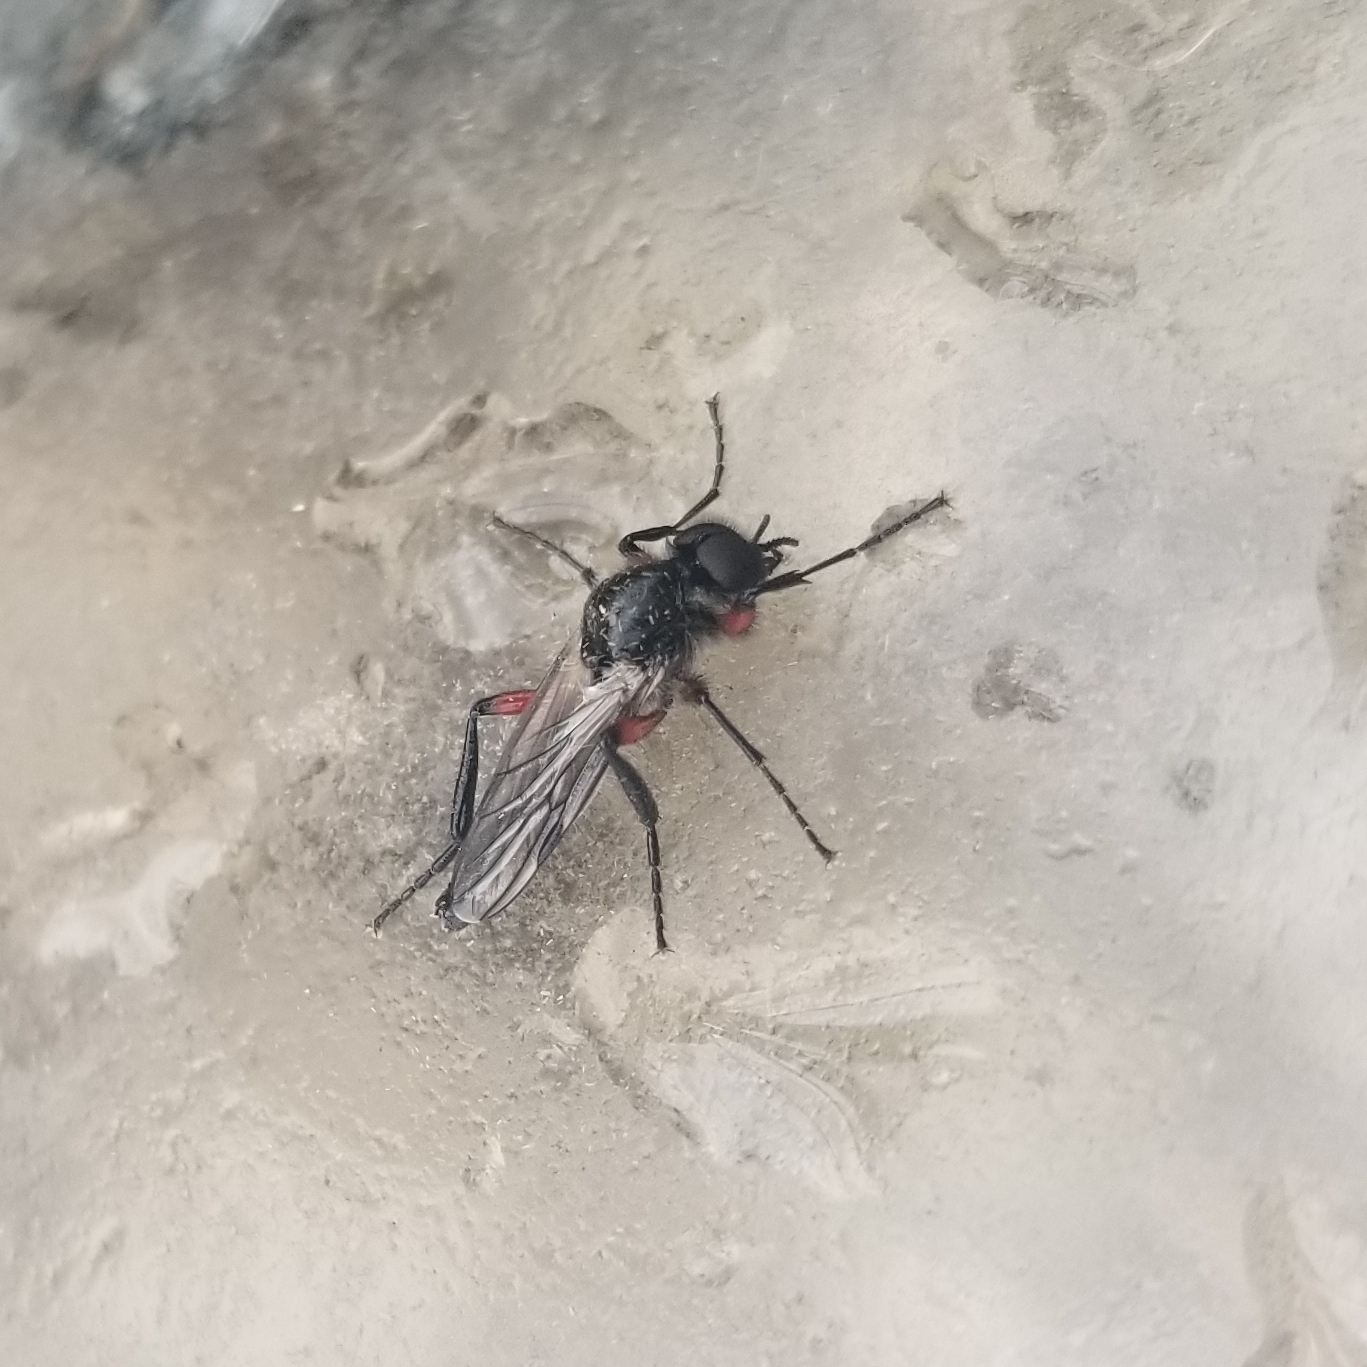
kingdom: Animalia
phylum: Arthropoda
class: Insecta
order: Diptera
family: Bibionidae
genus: Bibio
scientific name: Bibio femoratus
